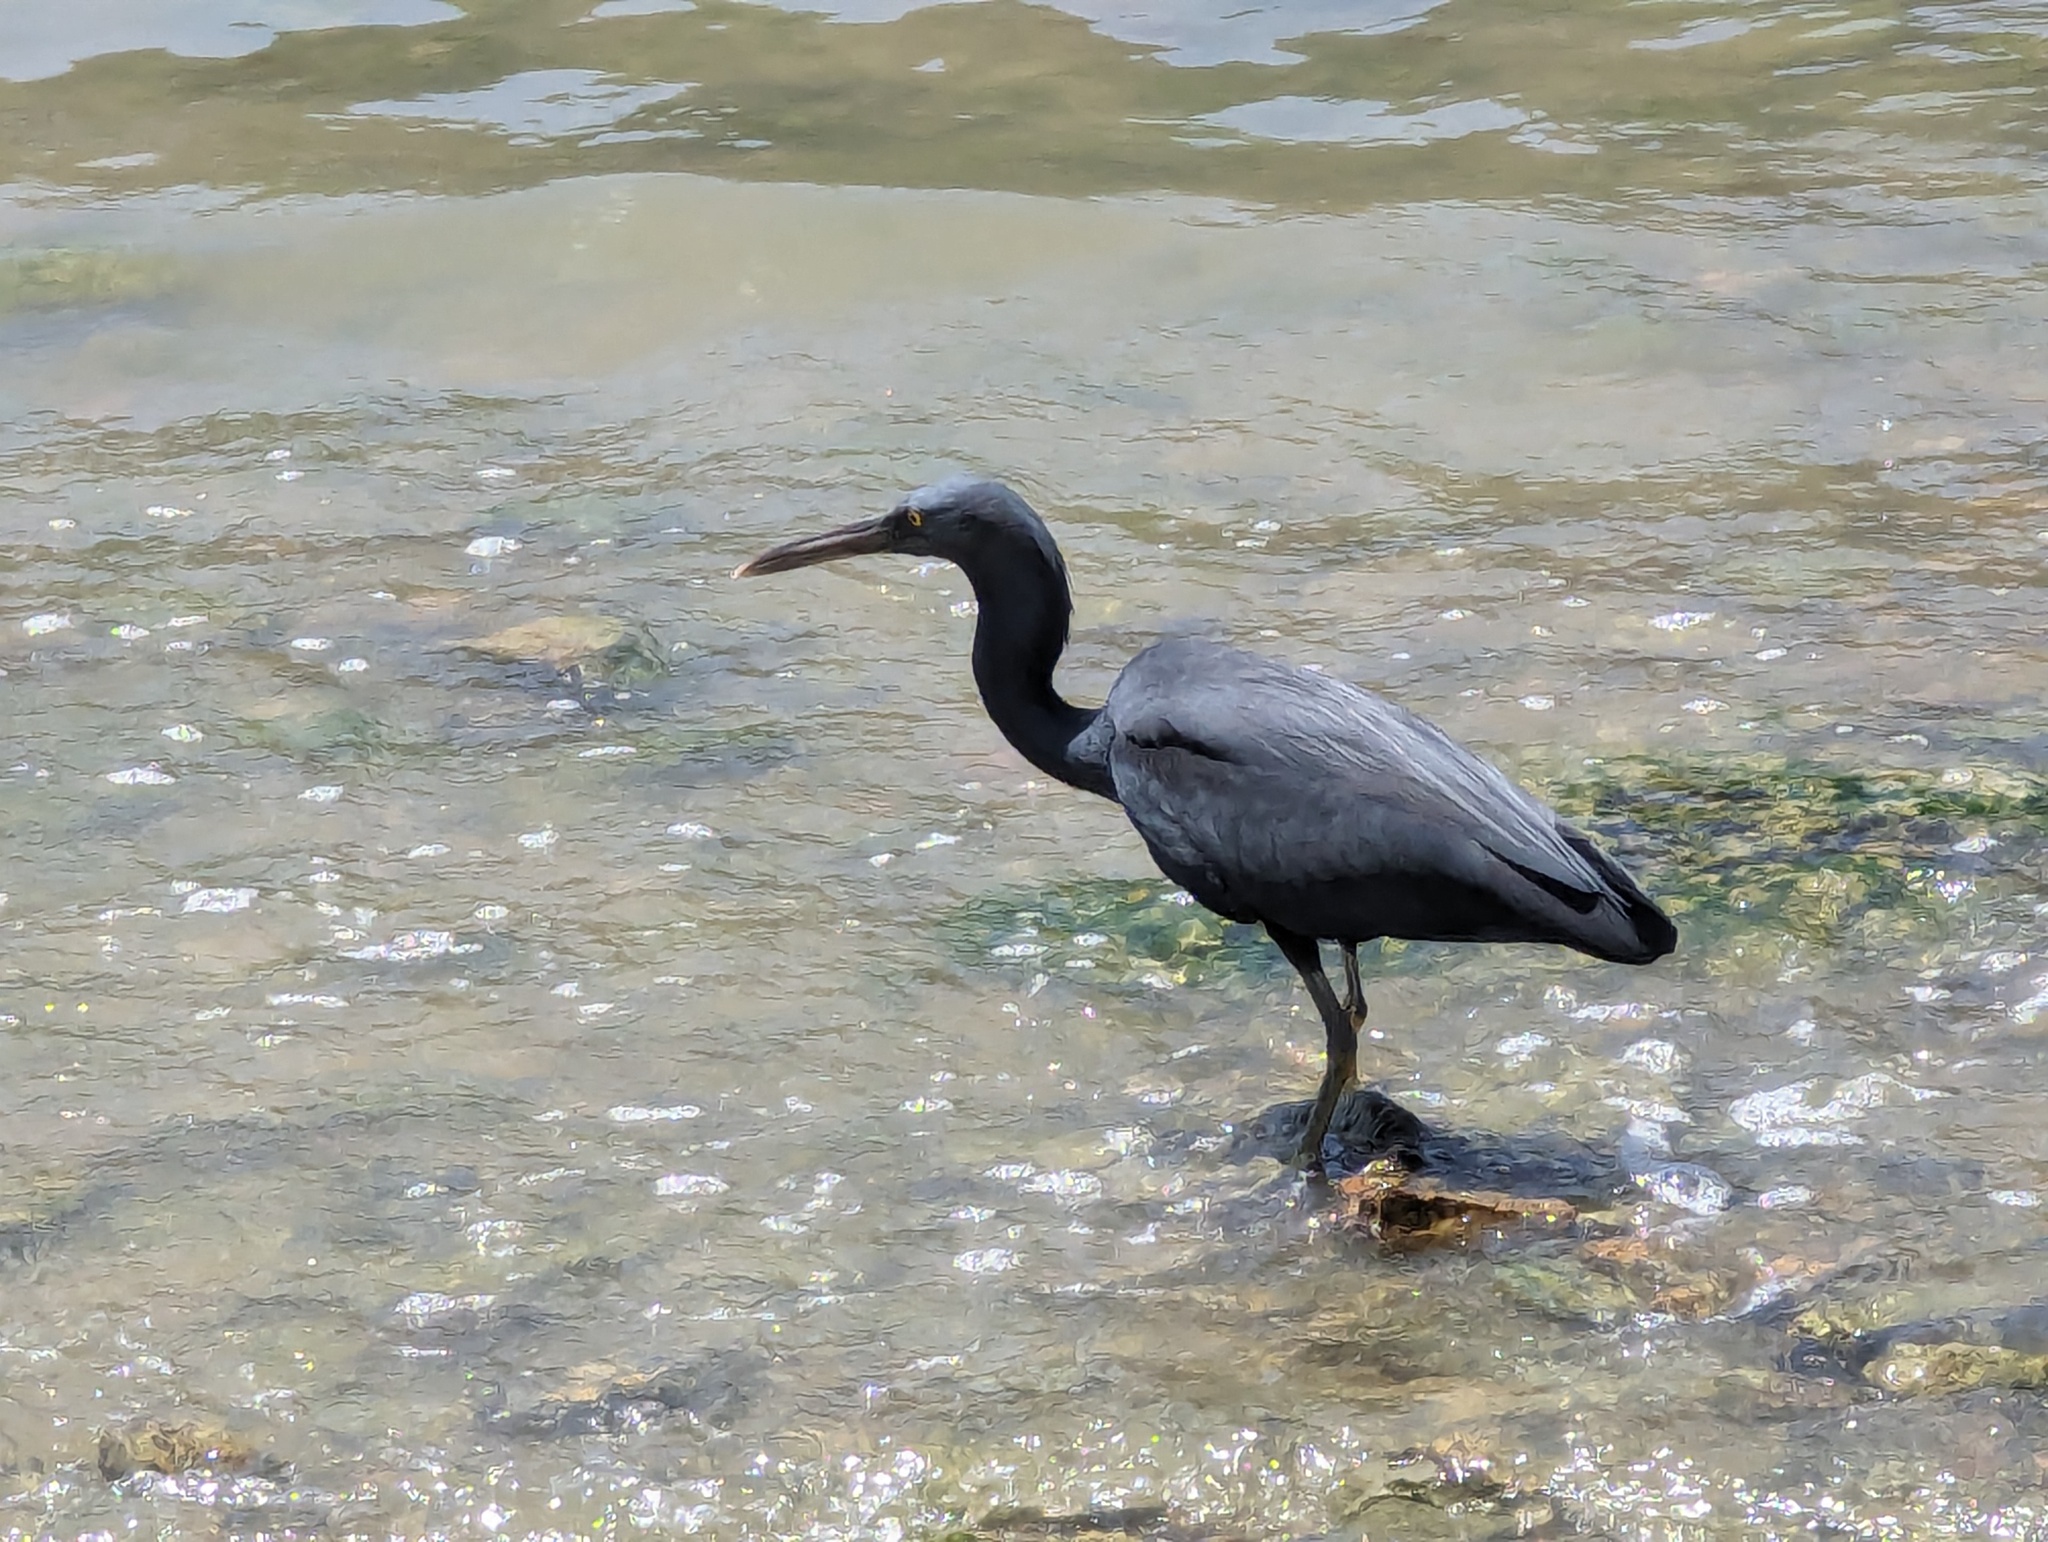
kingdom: Animalia
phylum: Chordata
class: Aves
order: Pelecaniformes
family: Ardeidae
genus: Egretta
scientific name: Egretta sacra
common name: Pacific reef heron
